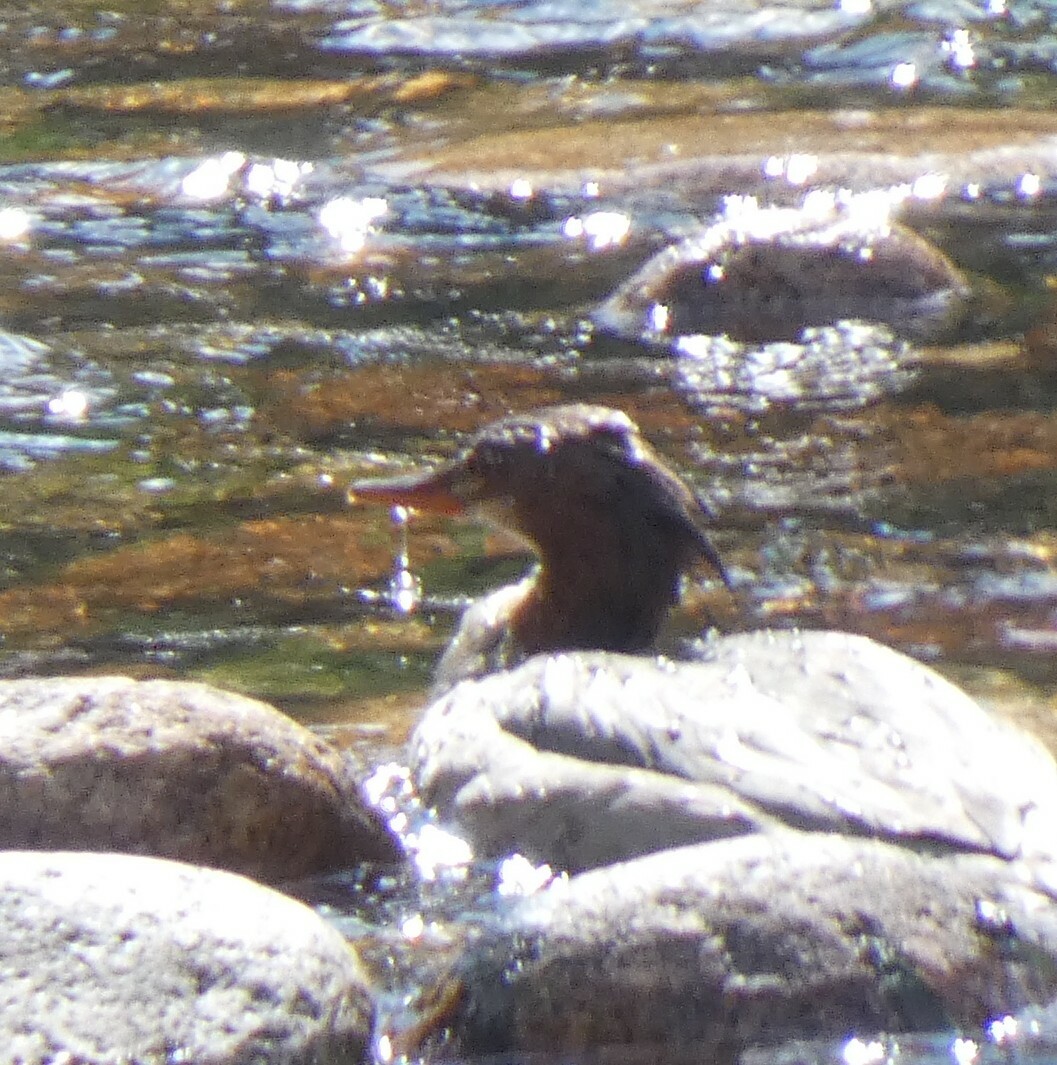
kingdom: Animalia
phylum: Chordata
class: Aves
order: Anseriformes
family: Anatidae
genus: Mergus
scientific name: Mergus merganser
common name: Common merganser
